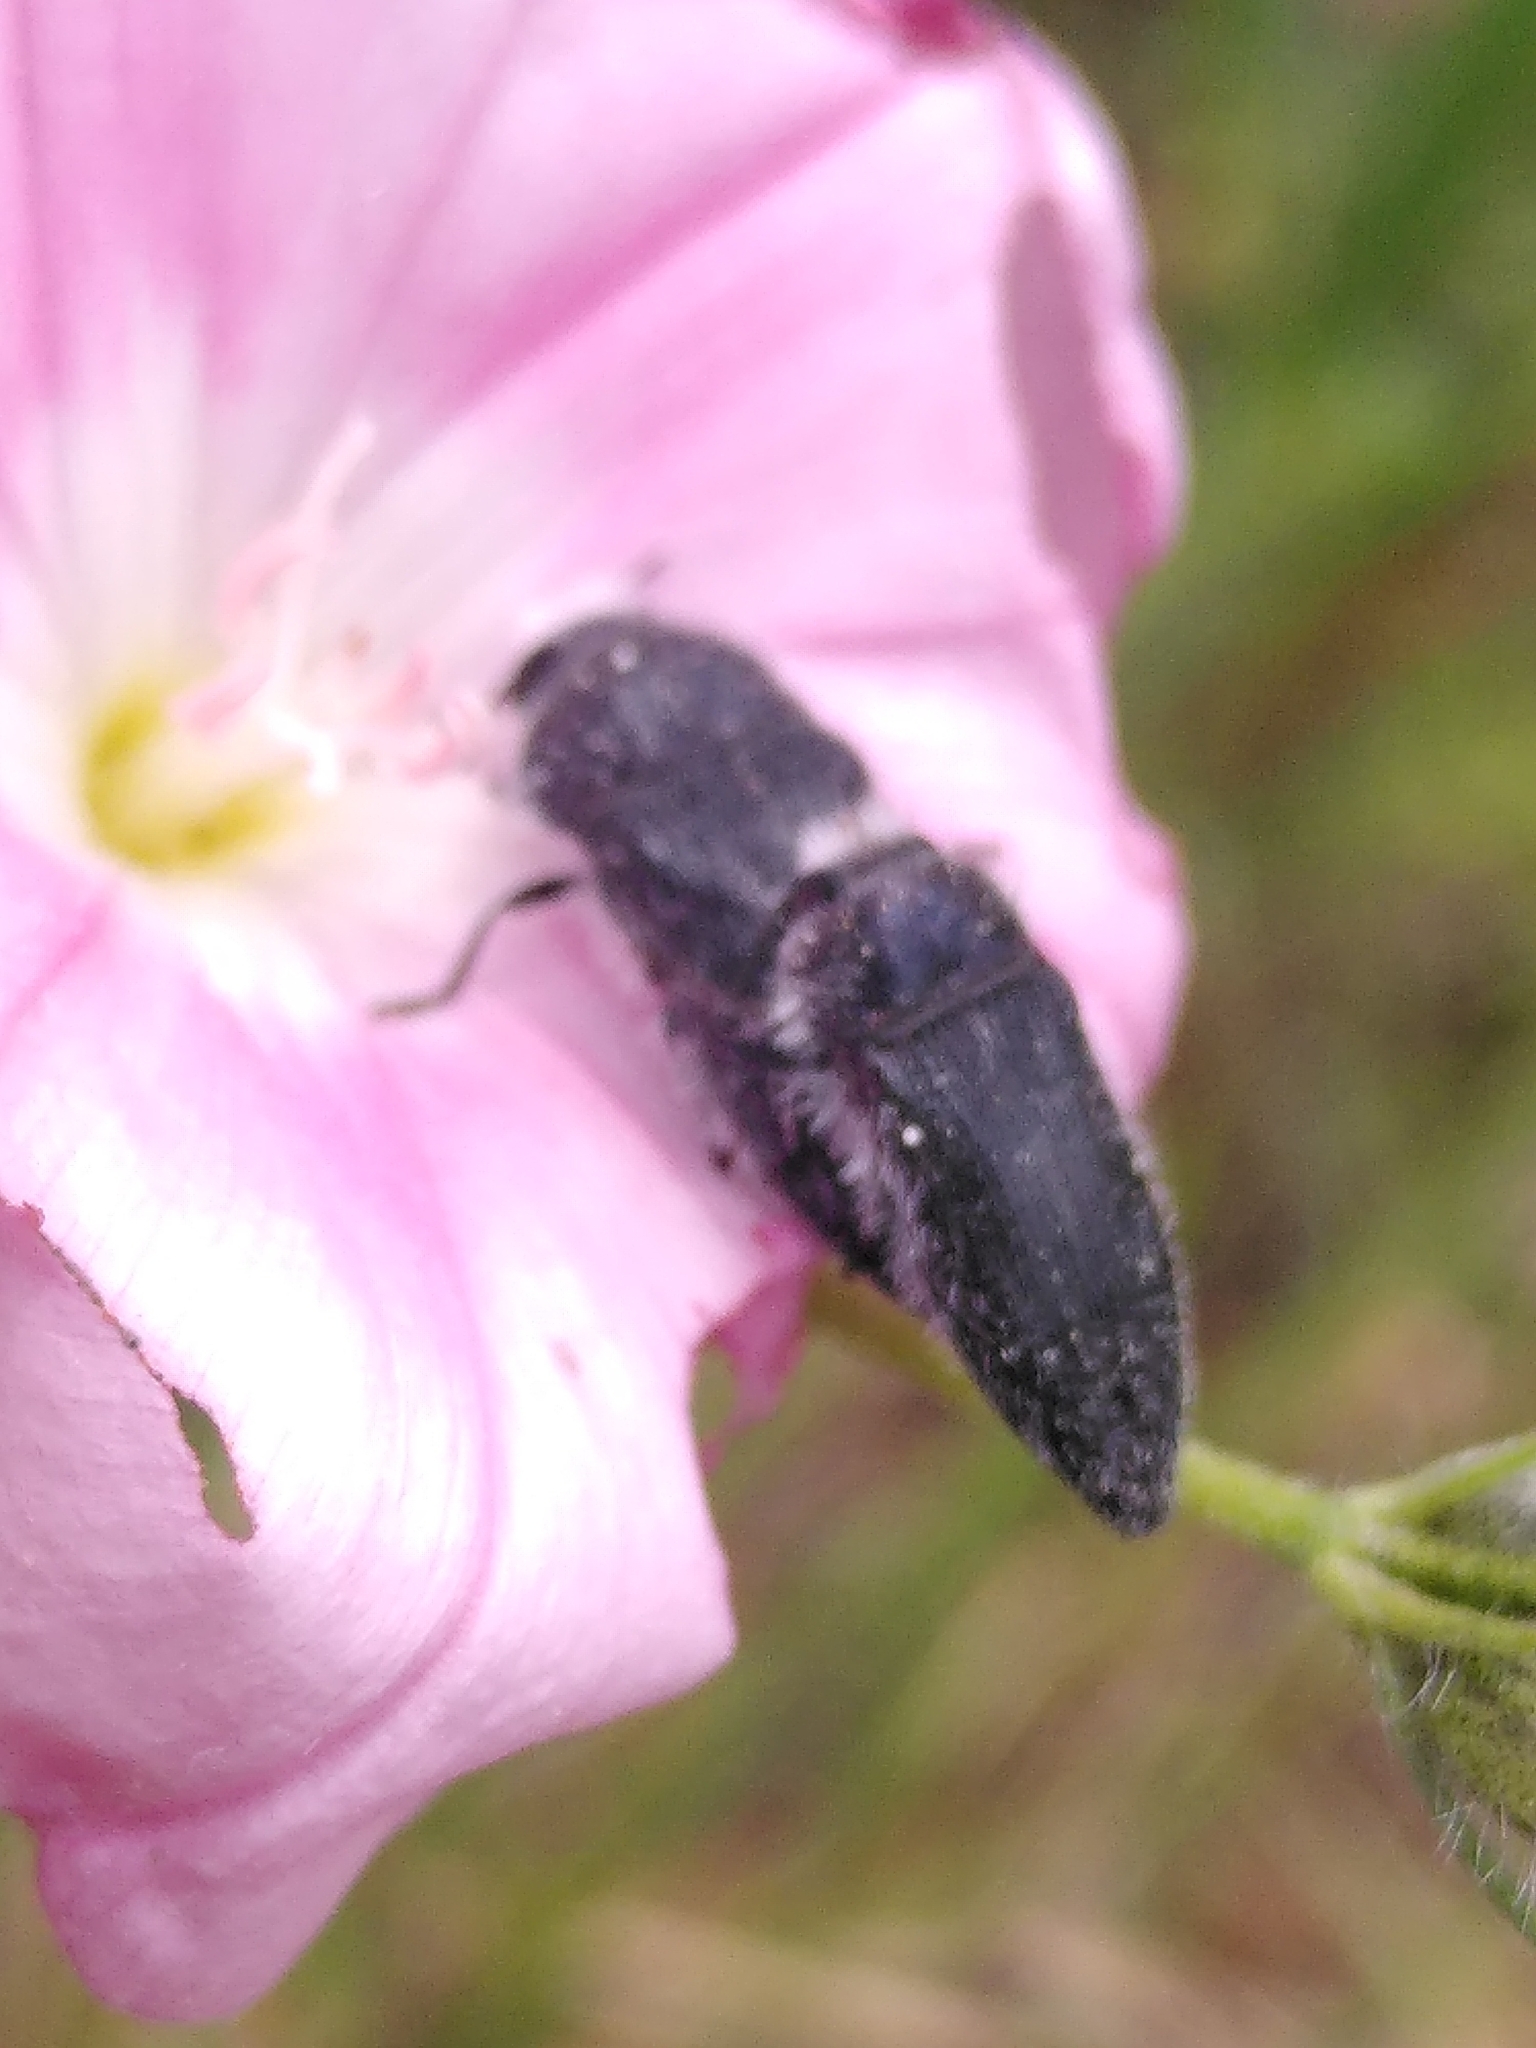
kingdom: Animalia
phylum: Arthropoda
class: Insecta
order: Coleoptera
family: Buprestidae
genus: Acmaeodera
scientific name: Acmaeodera cylindrica
